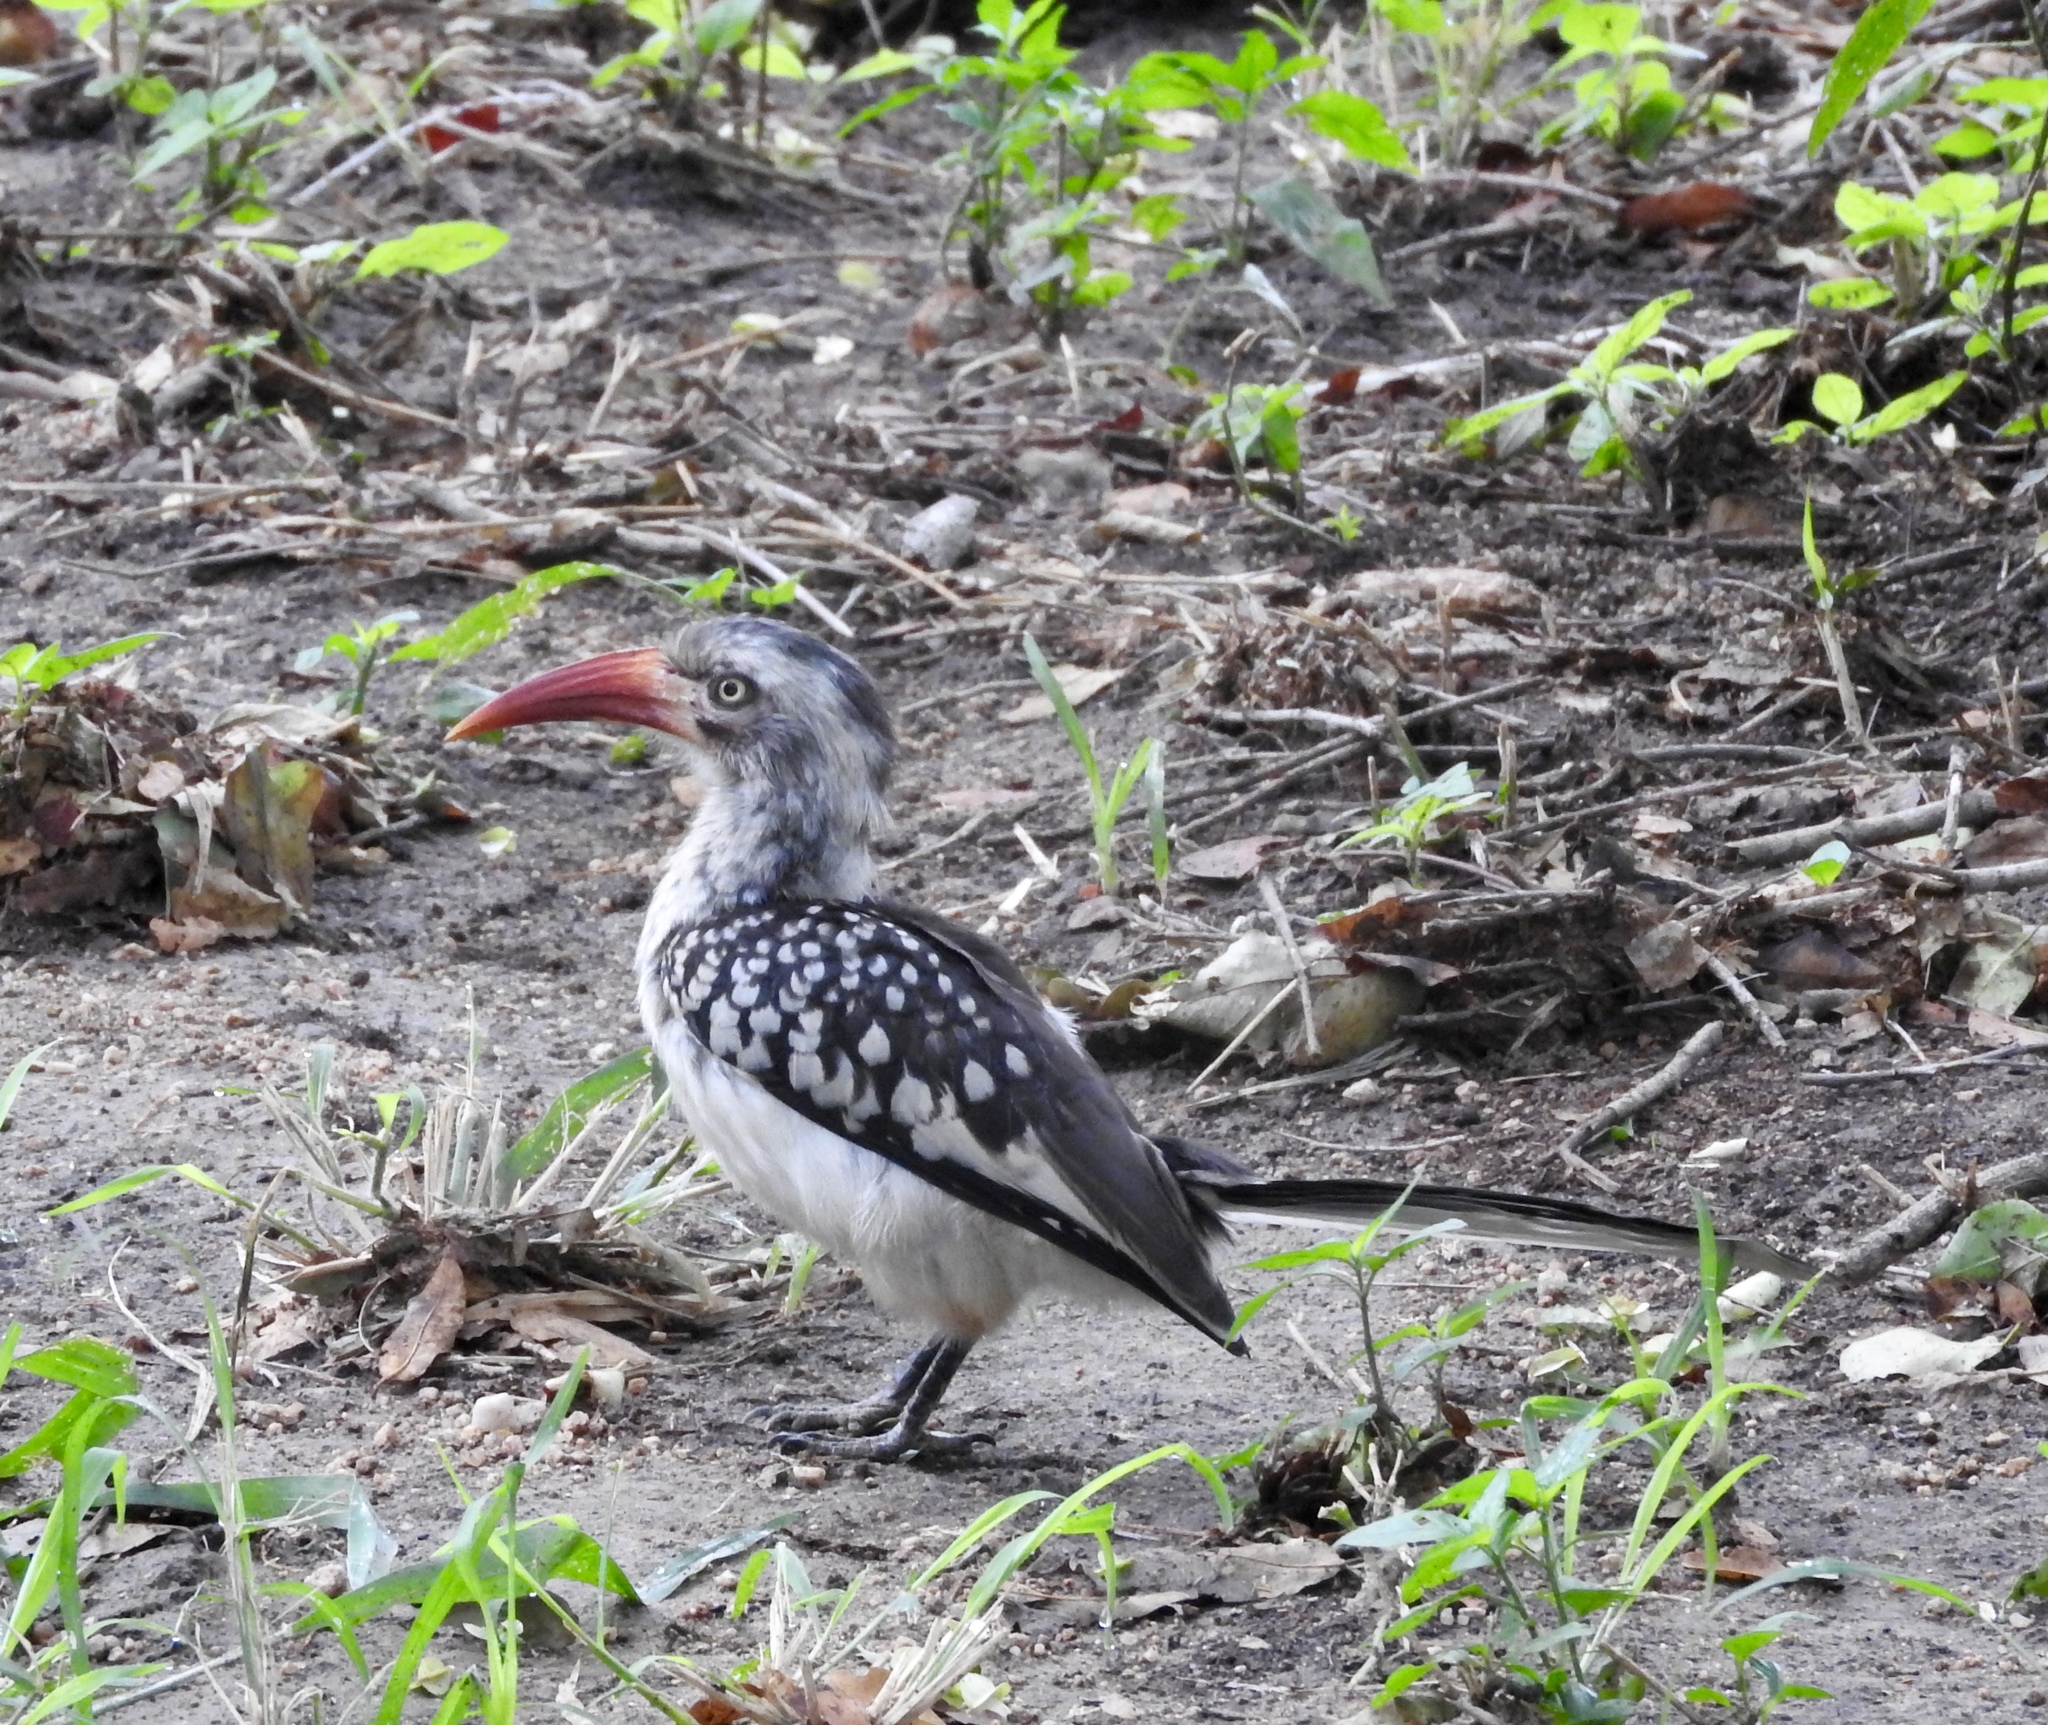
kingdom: Animalia
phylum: Chordata
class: Aves
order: Bucerotiformes
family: Bucerotidae
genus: Tockus
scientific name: Tockus rufirostris
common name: Southern red-billed hornbill
